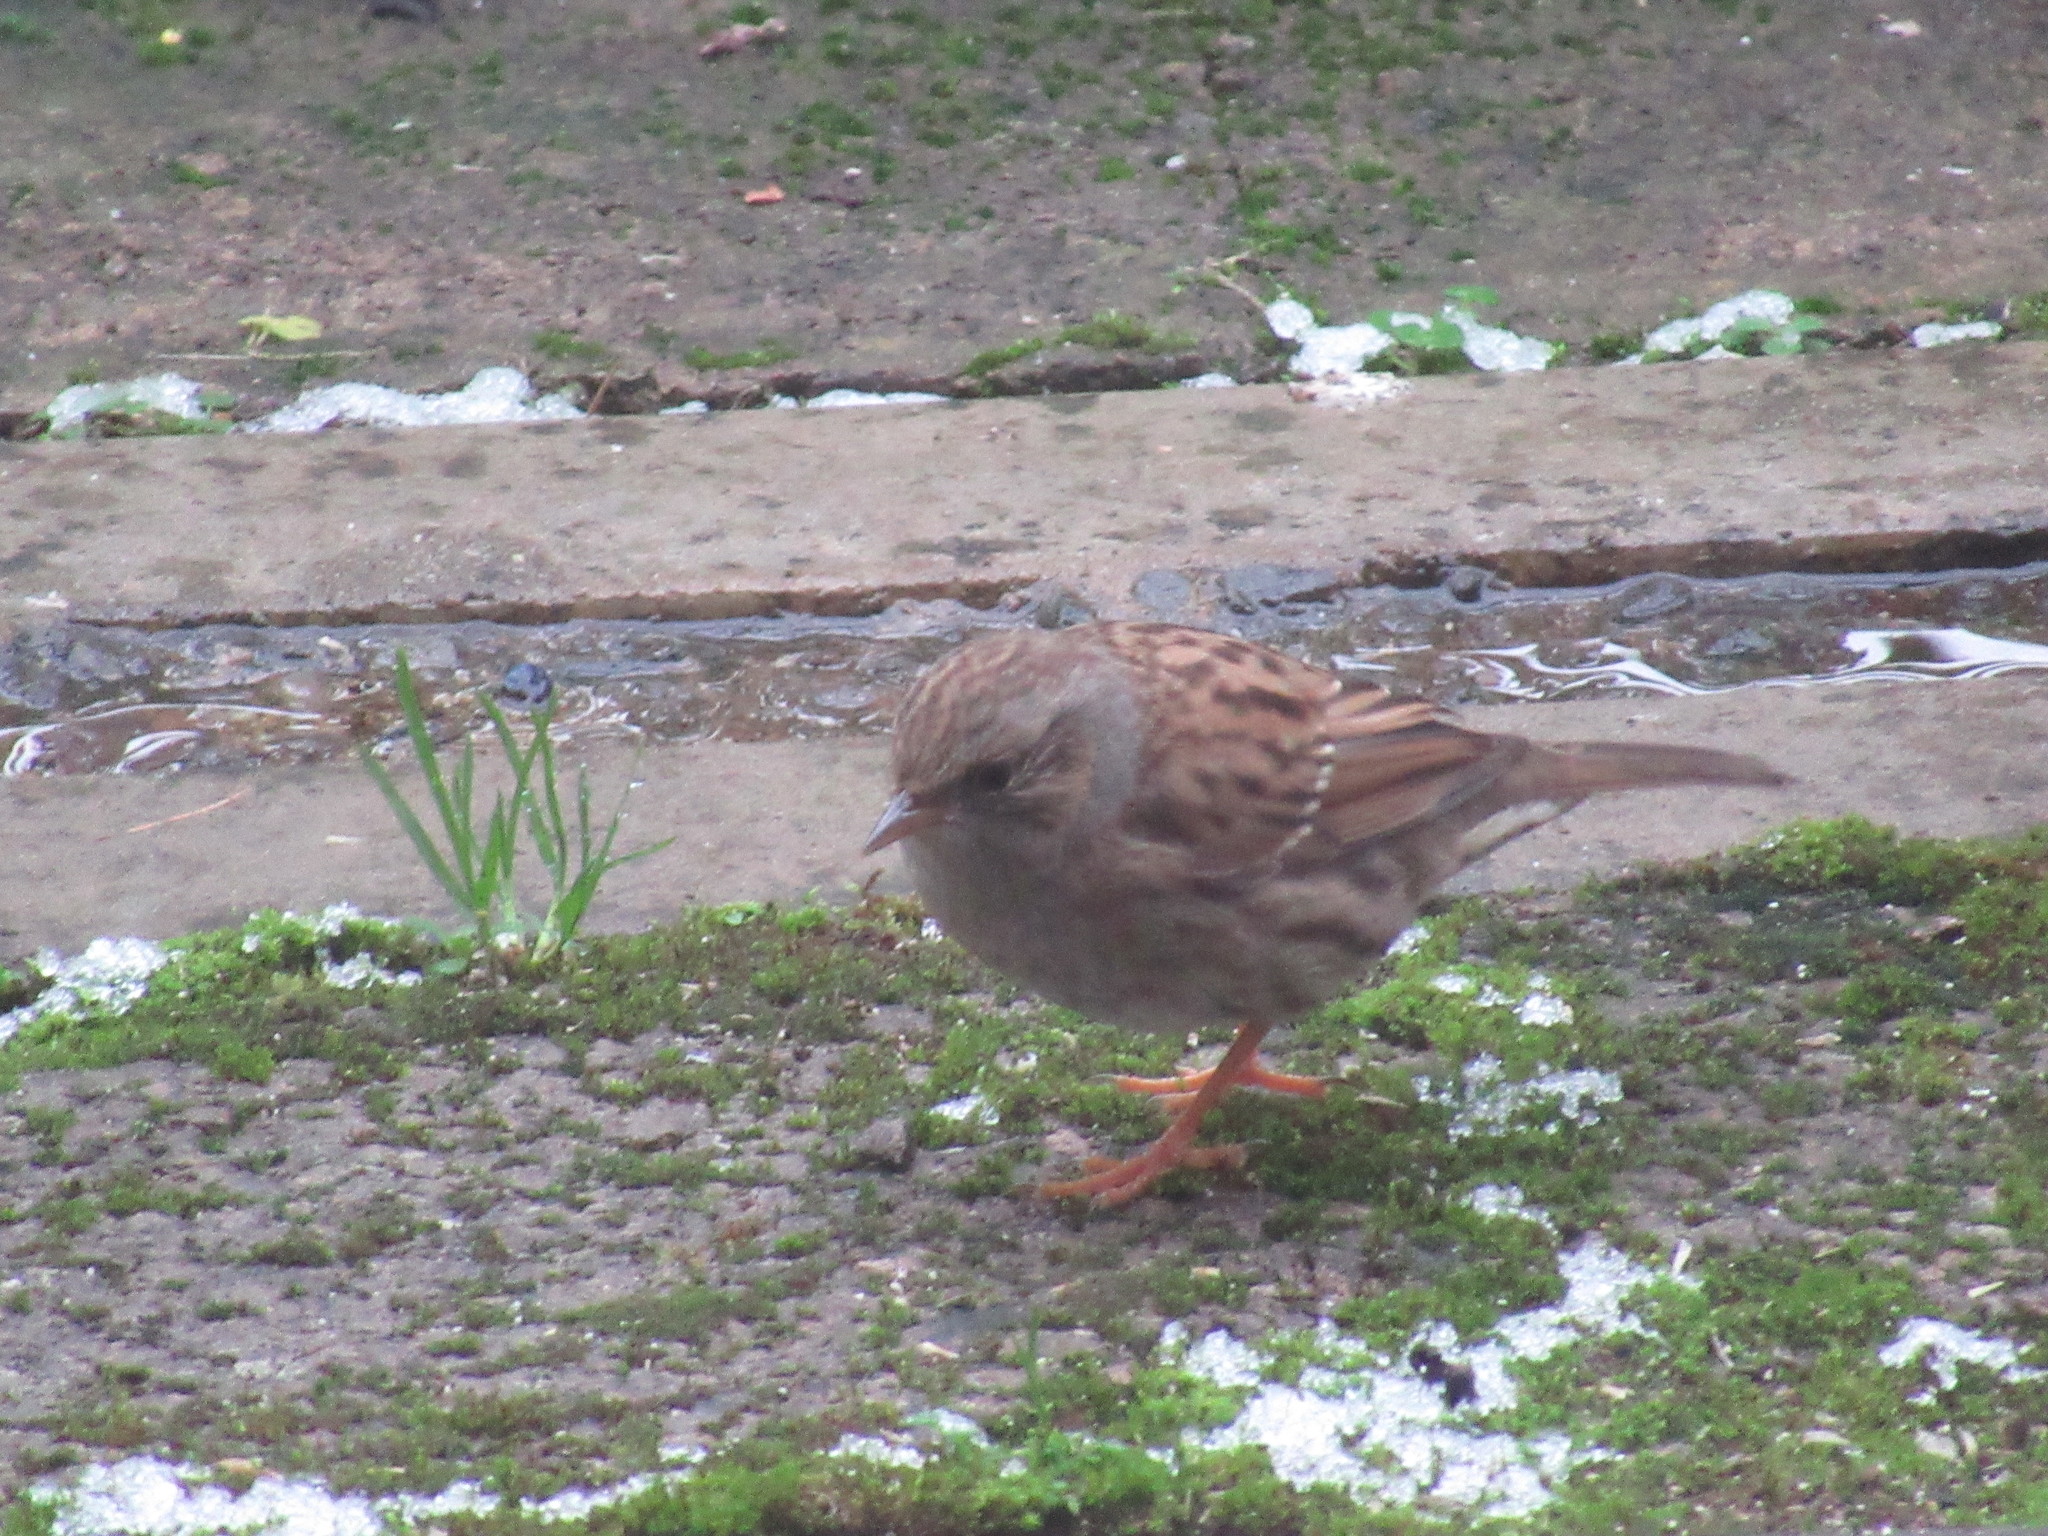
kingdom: Animalia
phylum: Chordata
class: Aves
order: Passeriformes
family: Prunellidae
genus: Prunella
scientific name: Prunella modularis
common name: Dunnock
